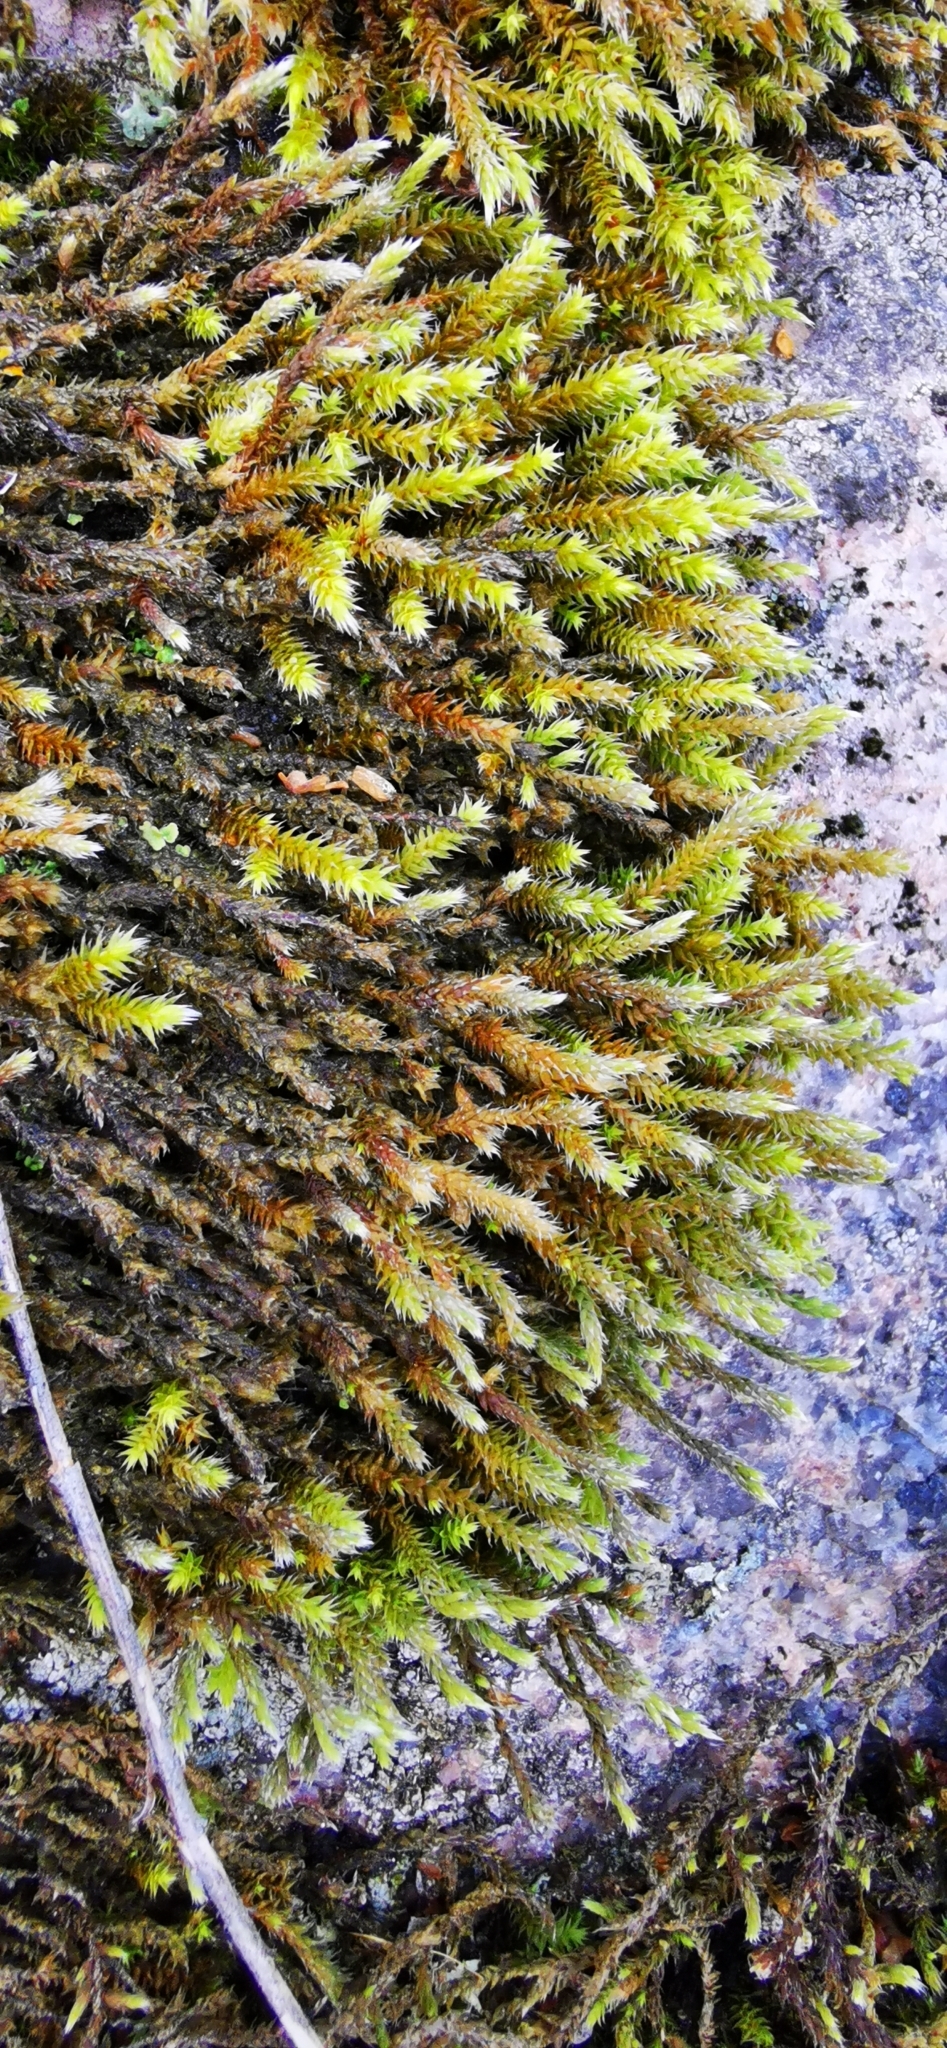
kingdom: Plantae
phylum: Bryophyta
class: Bryopsida
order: Hedwigiales
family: Hedwigiaceae
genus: Hedwigia
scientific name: Hedwigia ciliata
